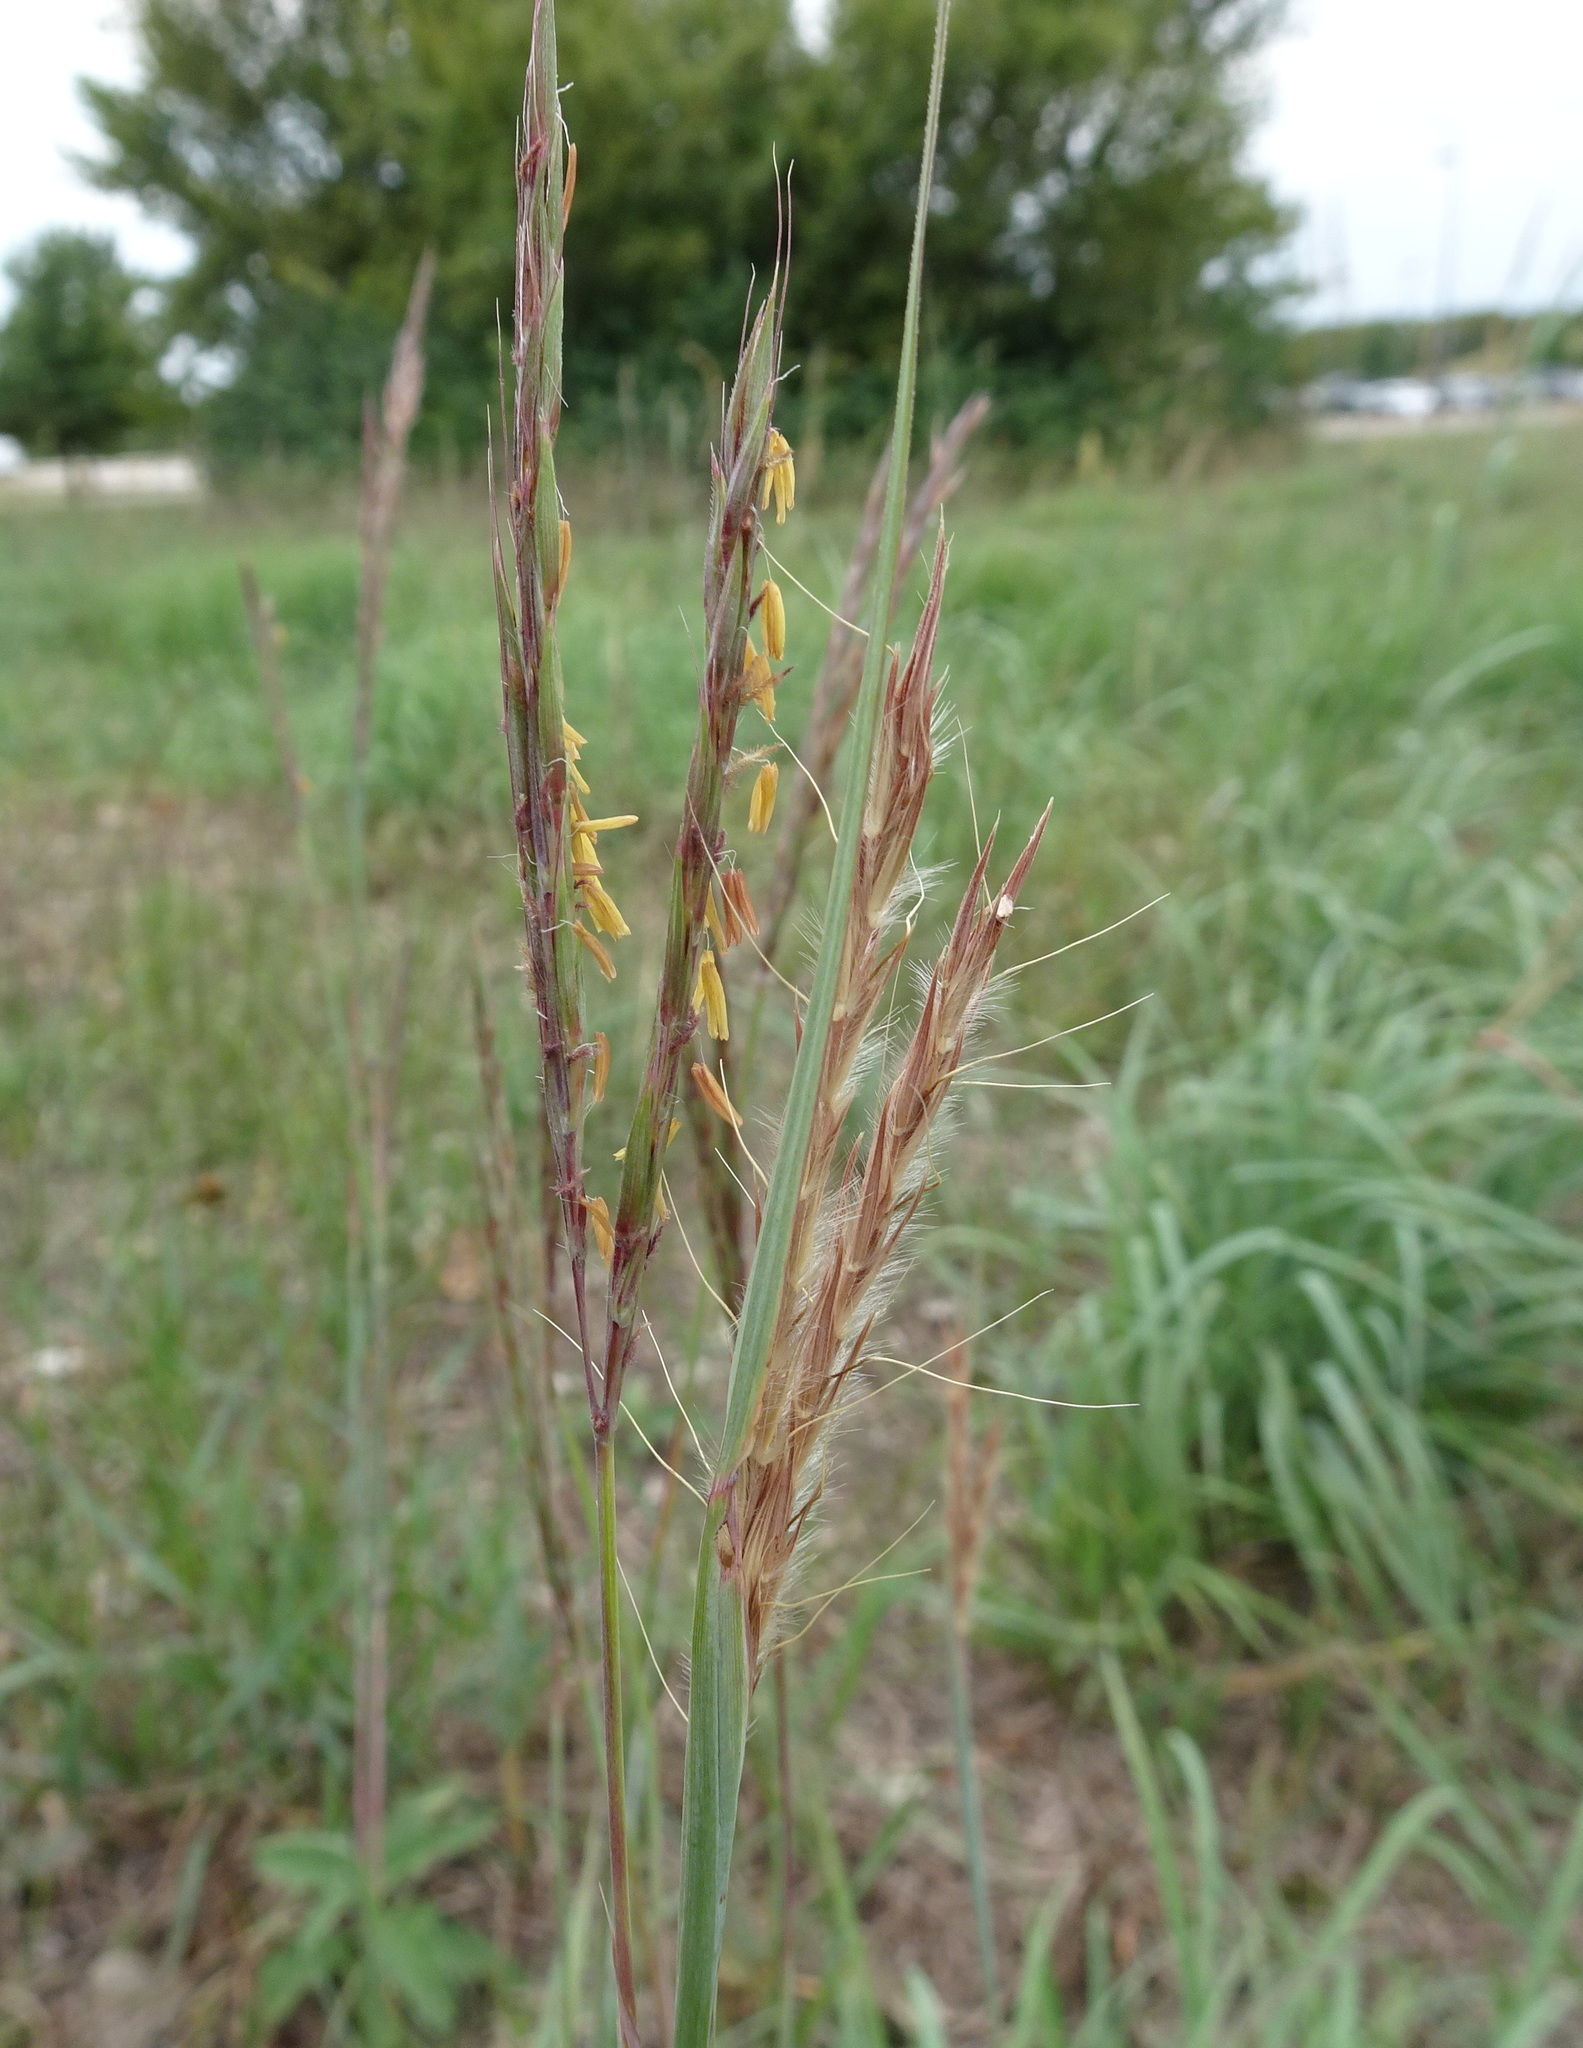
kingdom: Plantae
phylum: Tracheophyta
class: Liliopsida
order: Poales
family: Poaceae
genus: Andropogon
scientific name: Andropogon gerardi
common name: Big bluestem
